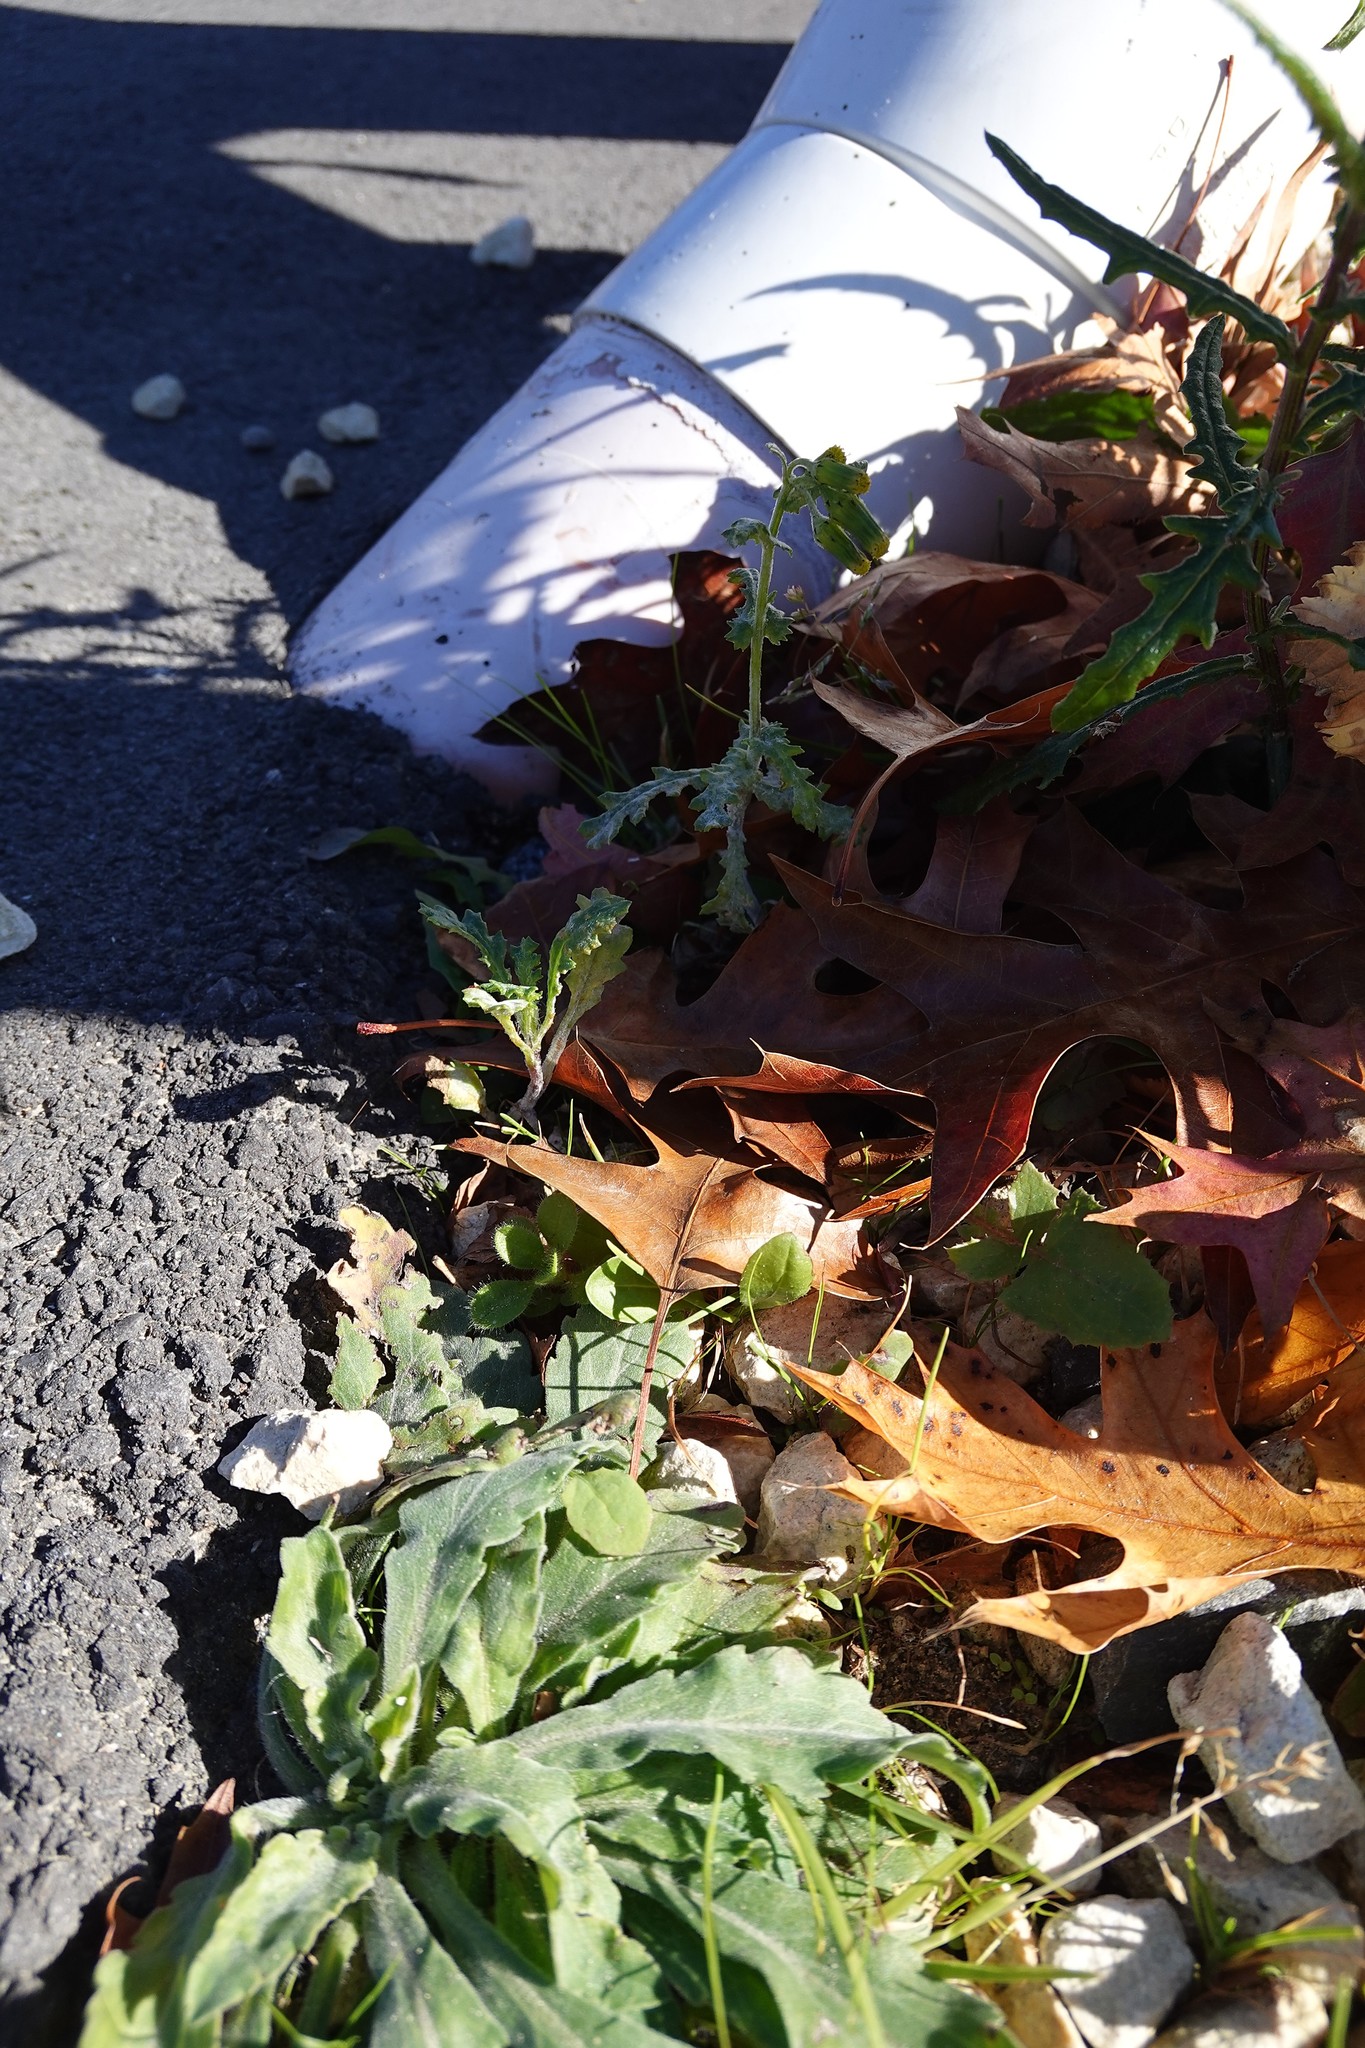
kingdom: Plantae
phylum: Tracheophyta
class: Magnoliopsida
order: Asterales
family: Asteraceae
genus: Senecio
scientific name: Senecio vulgaris
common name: Old-man-in-the-spring
